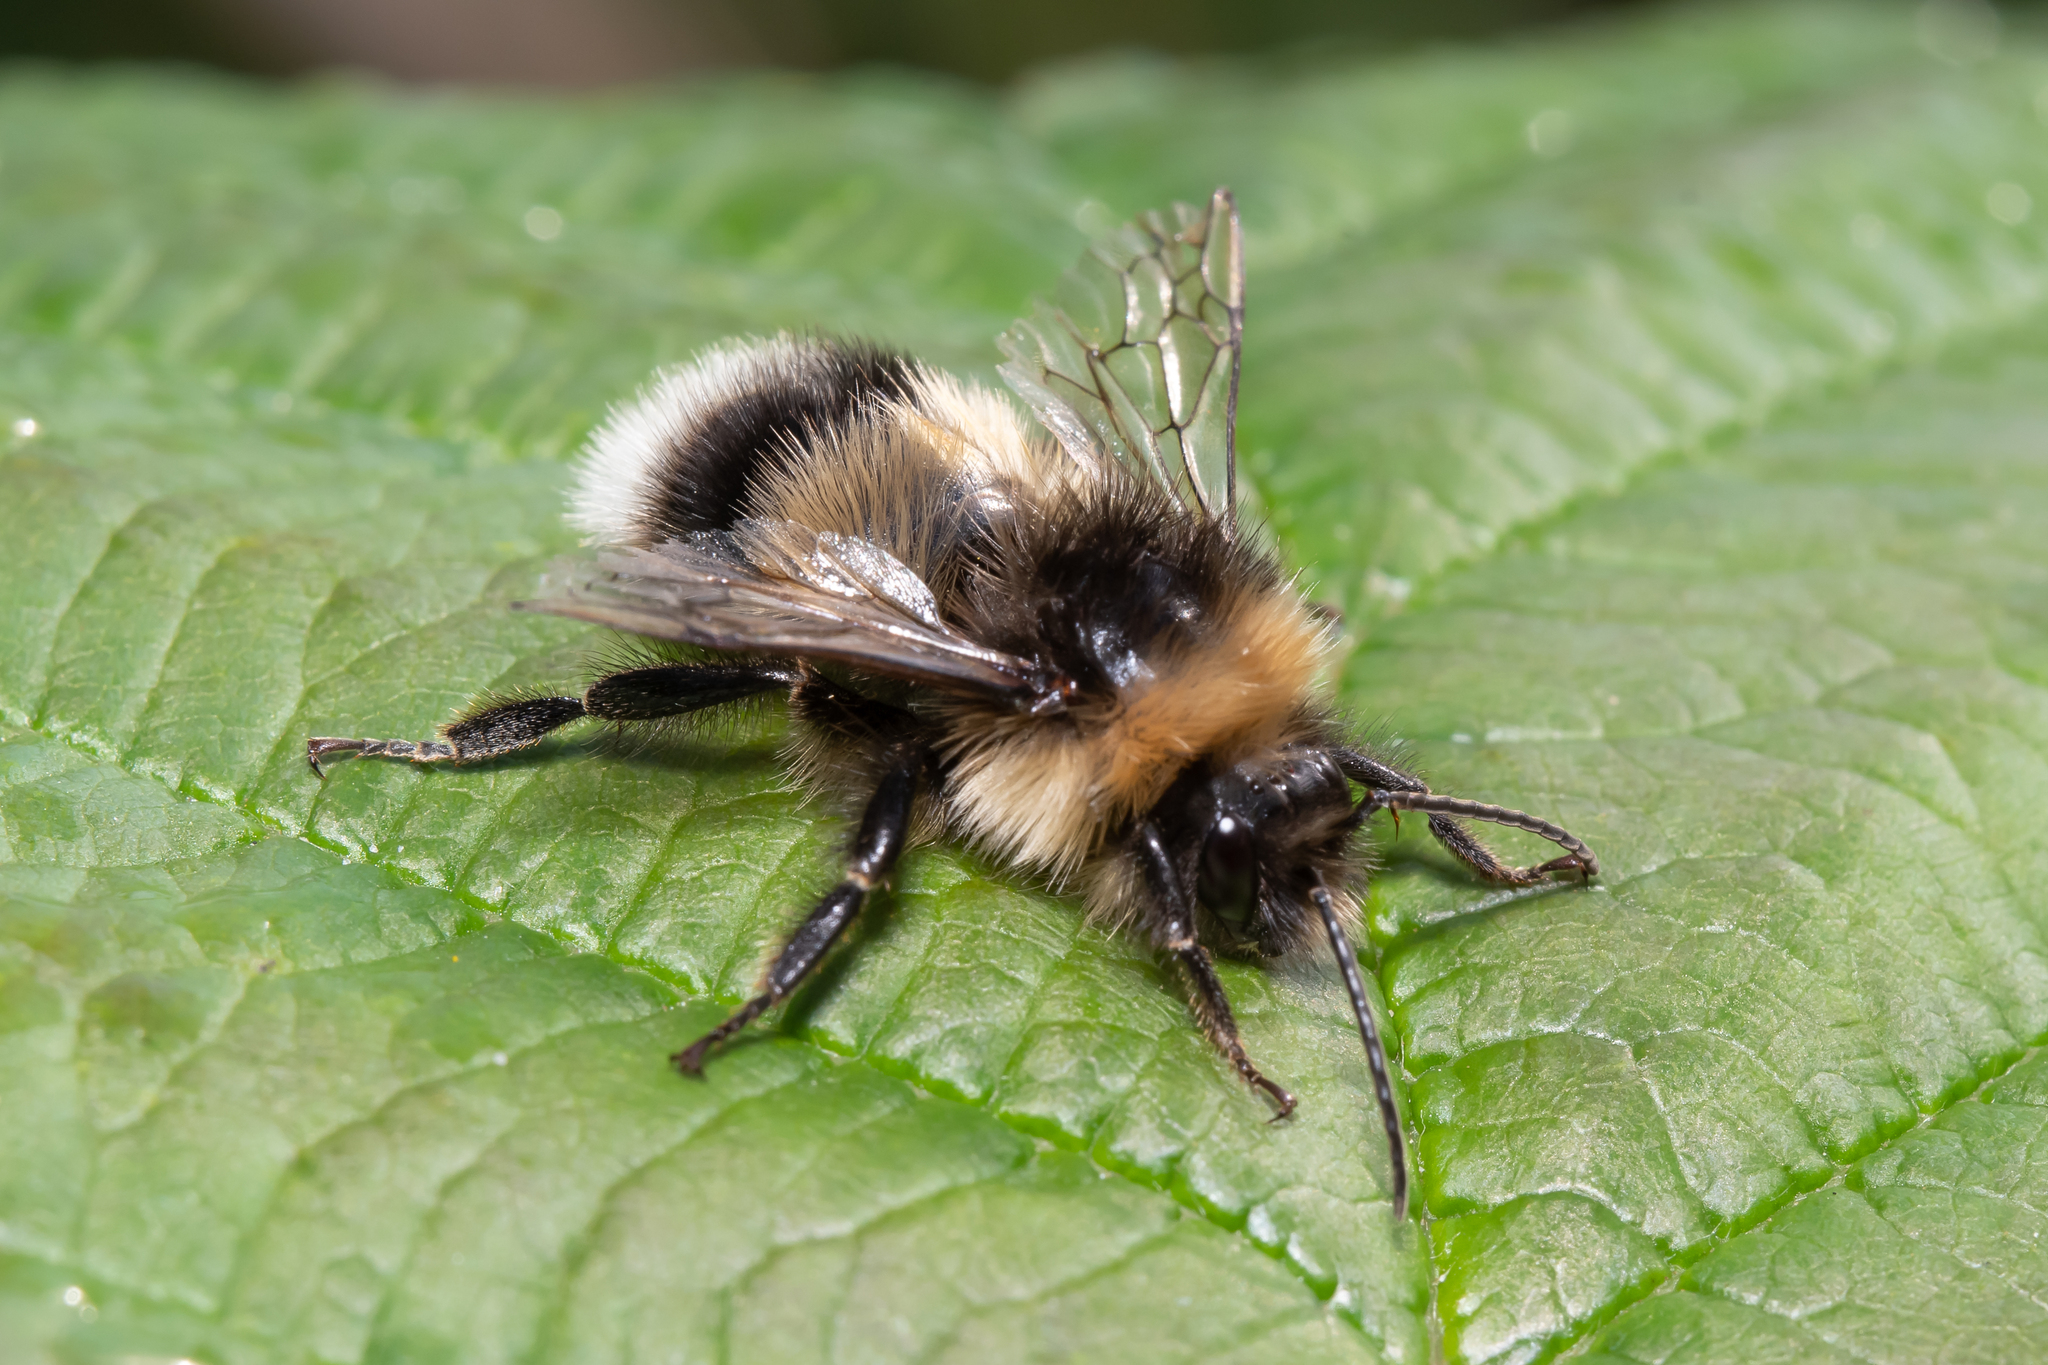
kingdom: Animalia
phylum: Arthropoda
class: Insecta
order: Hymenoptera
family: Apidae
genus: Bombus
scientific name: Bombus cryptarum
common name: Cryptic bumblebee
